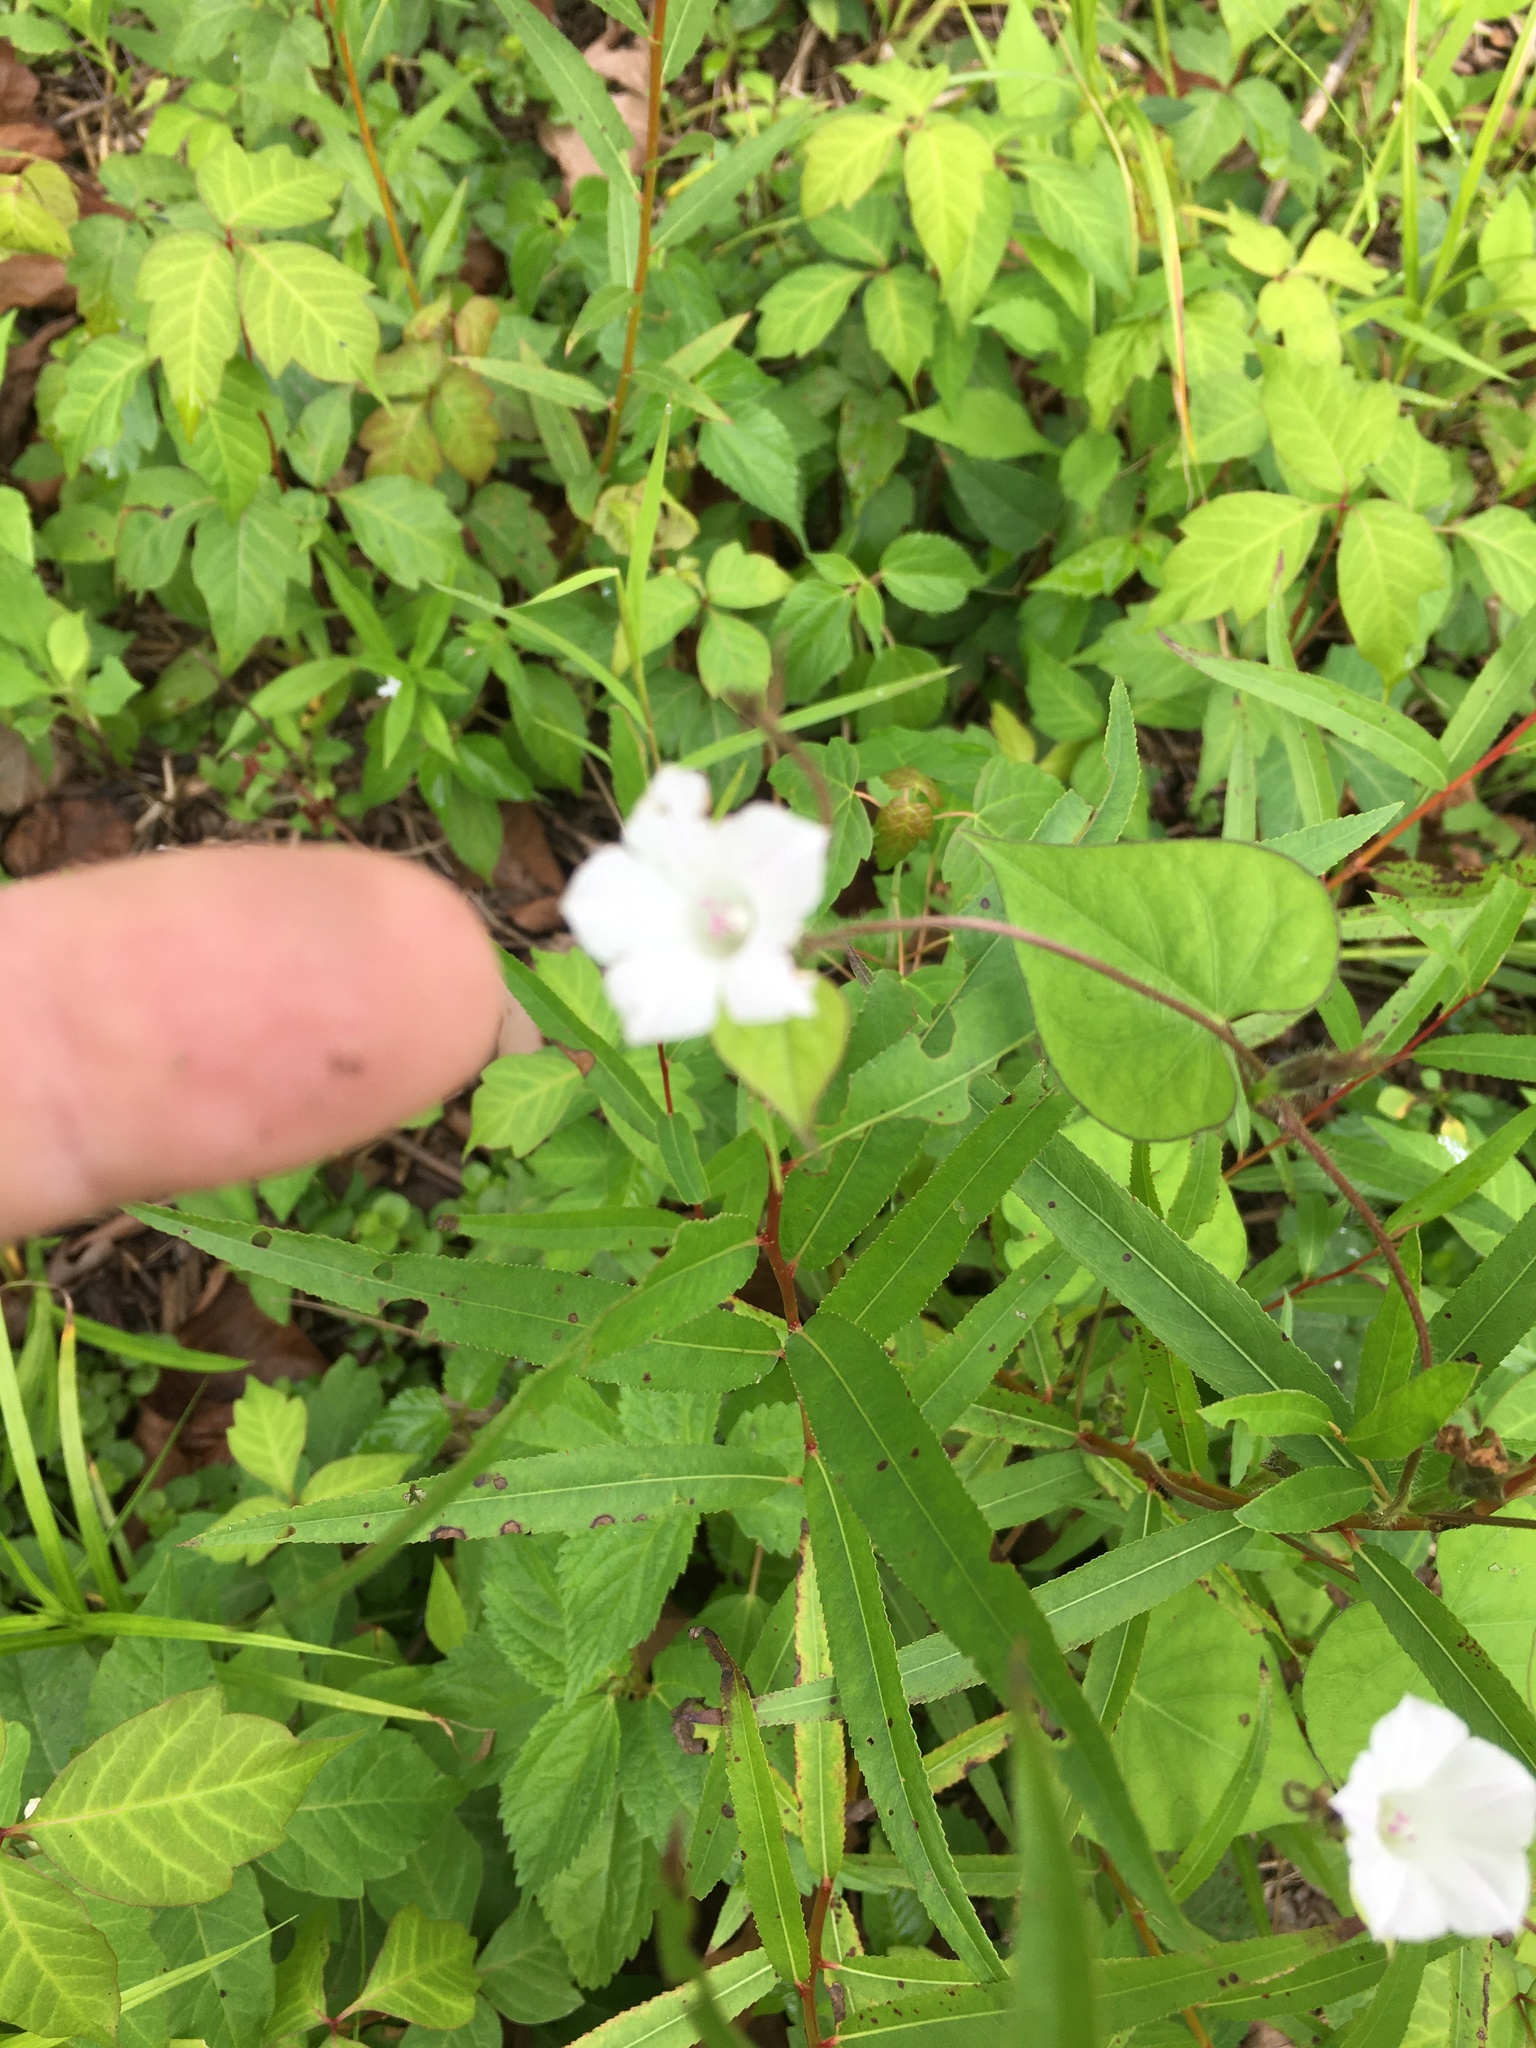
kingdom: Plantae
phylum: Tracheophyta
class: Magnoliopsida
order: Solanales
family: Convolvulaceae
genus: Ipomoea
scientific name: Ipomoea lacunosa
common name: White morning-glory
